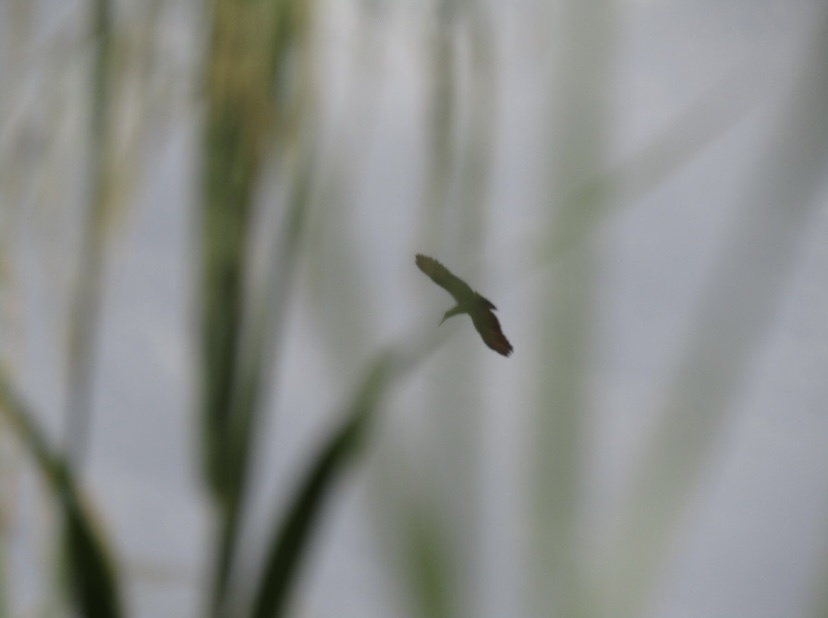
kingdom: Animalia
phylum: Chordata
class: Aves
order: Pelecaniformes
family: Scopidae
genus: Scopus
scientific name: Scopus umbretta
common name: Hamerkop
